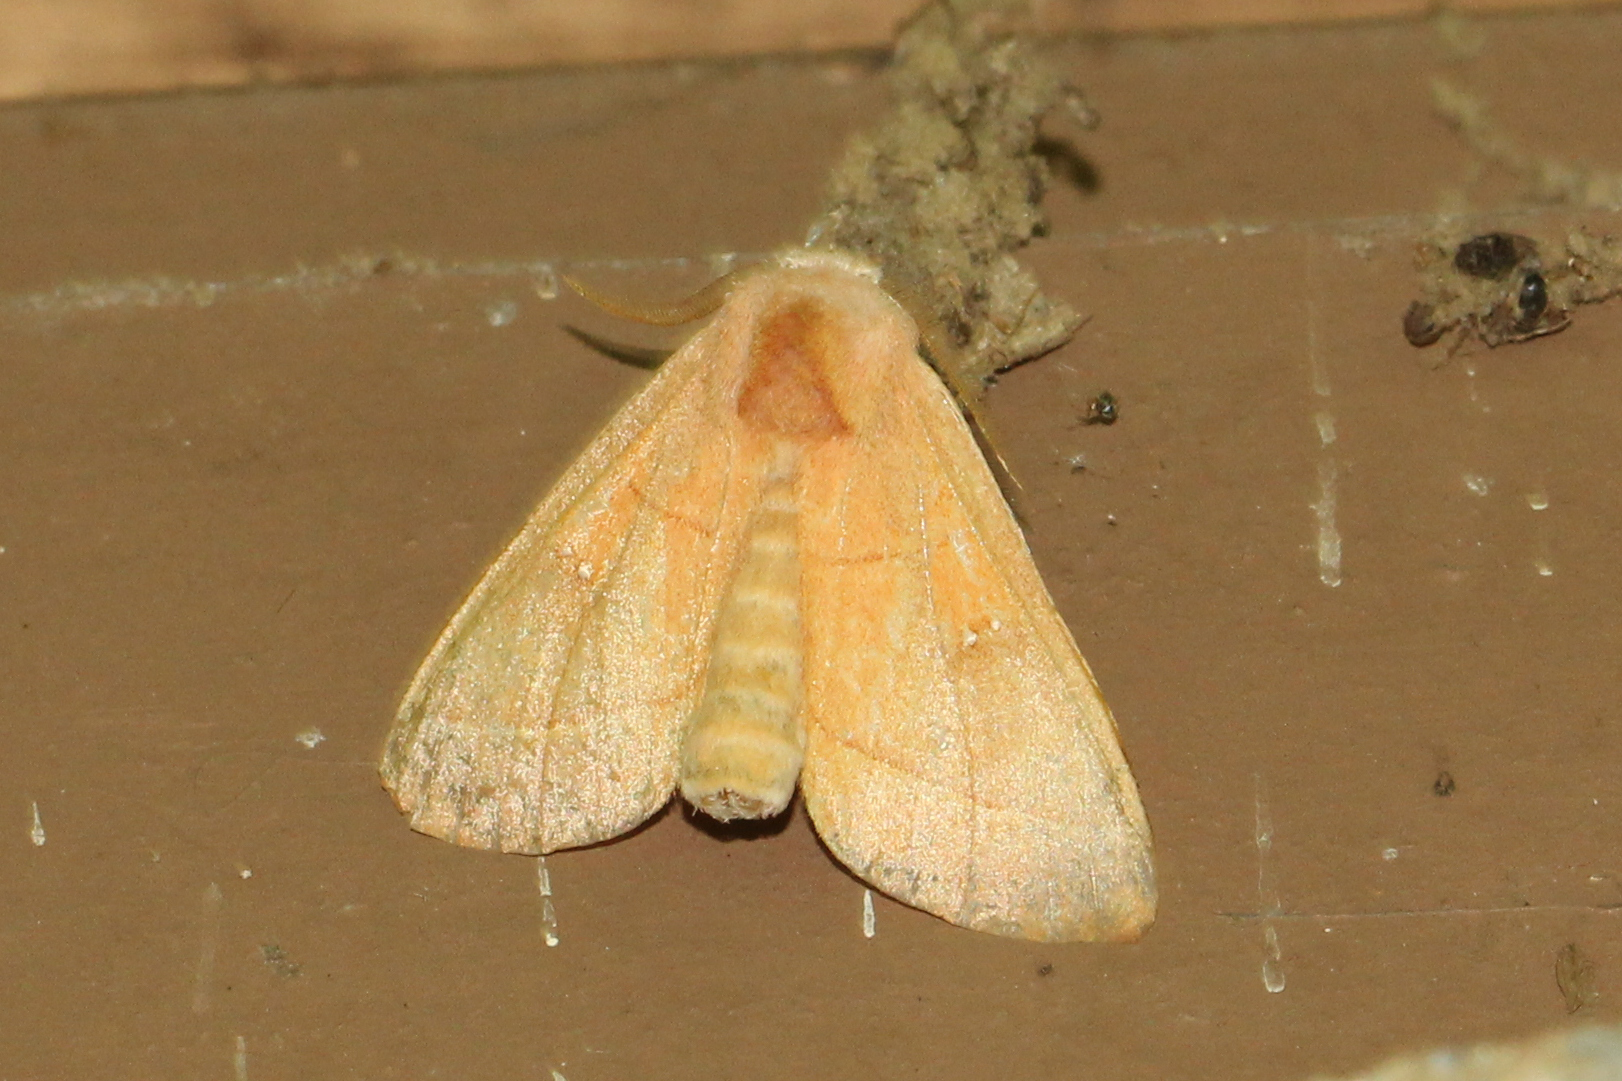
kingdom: Animalia
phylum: Arthropoda
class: Insecta
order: Lepidoptera
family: Notodontidae
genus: Nadata
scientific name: Nadata gibbosa
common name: White-dotted prominent
